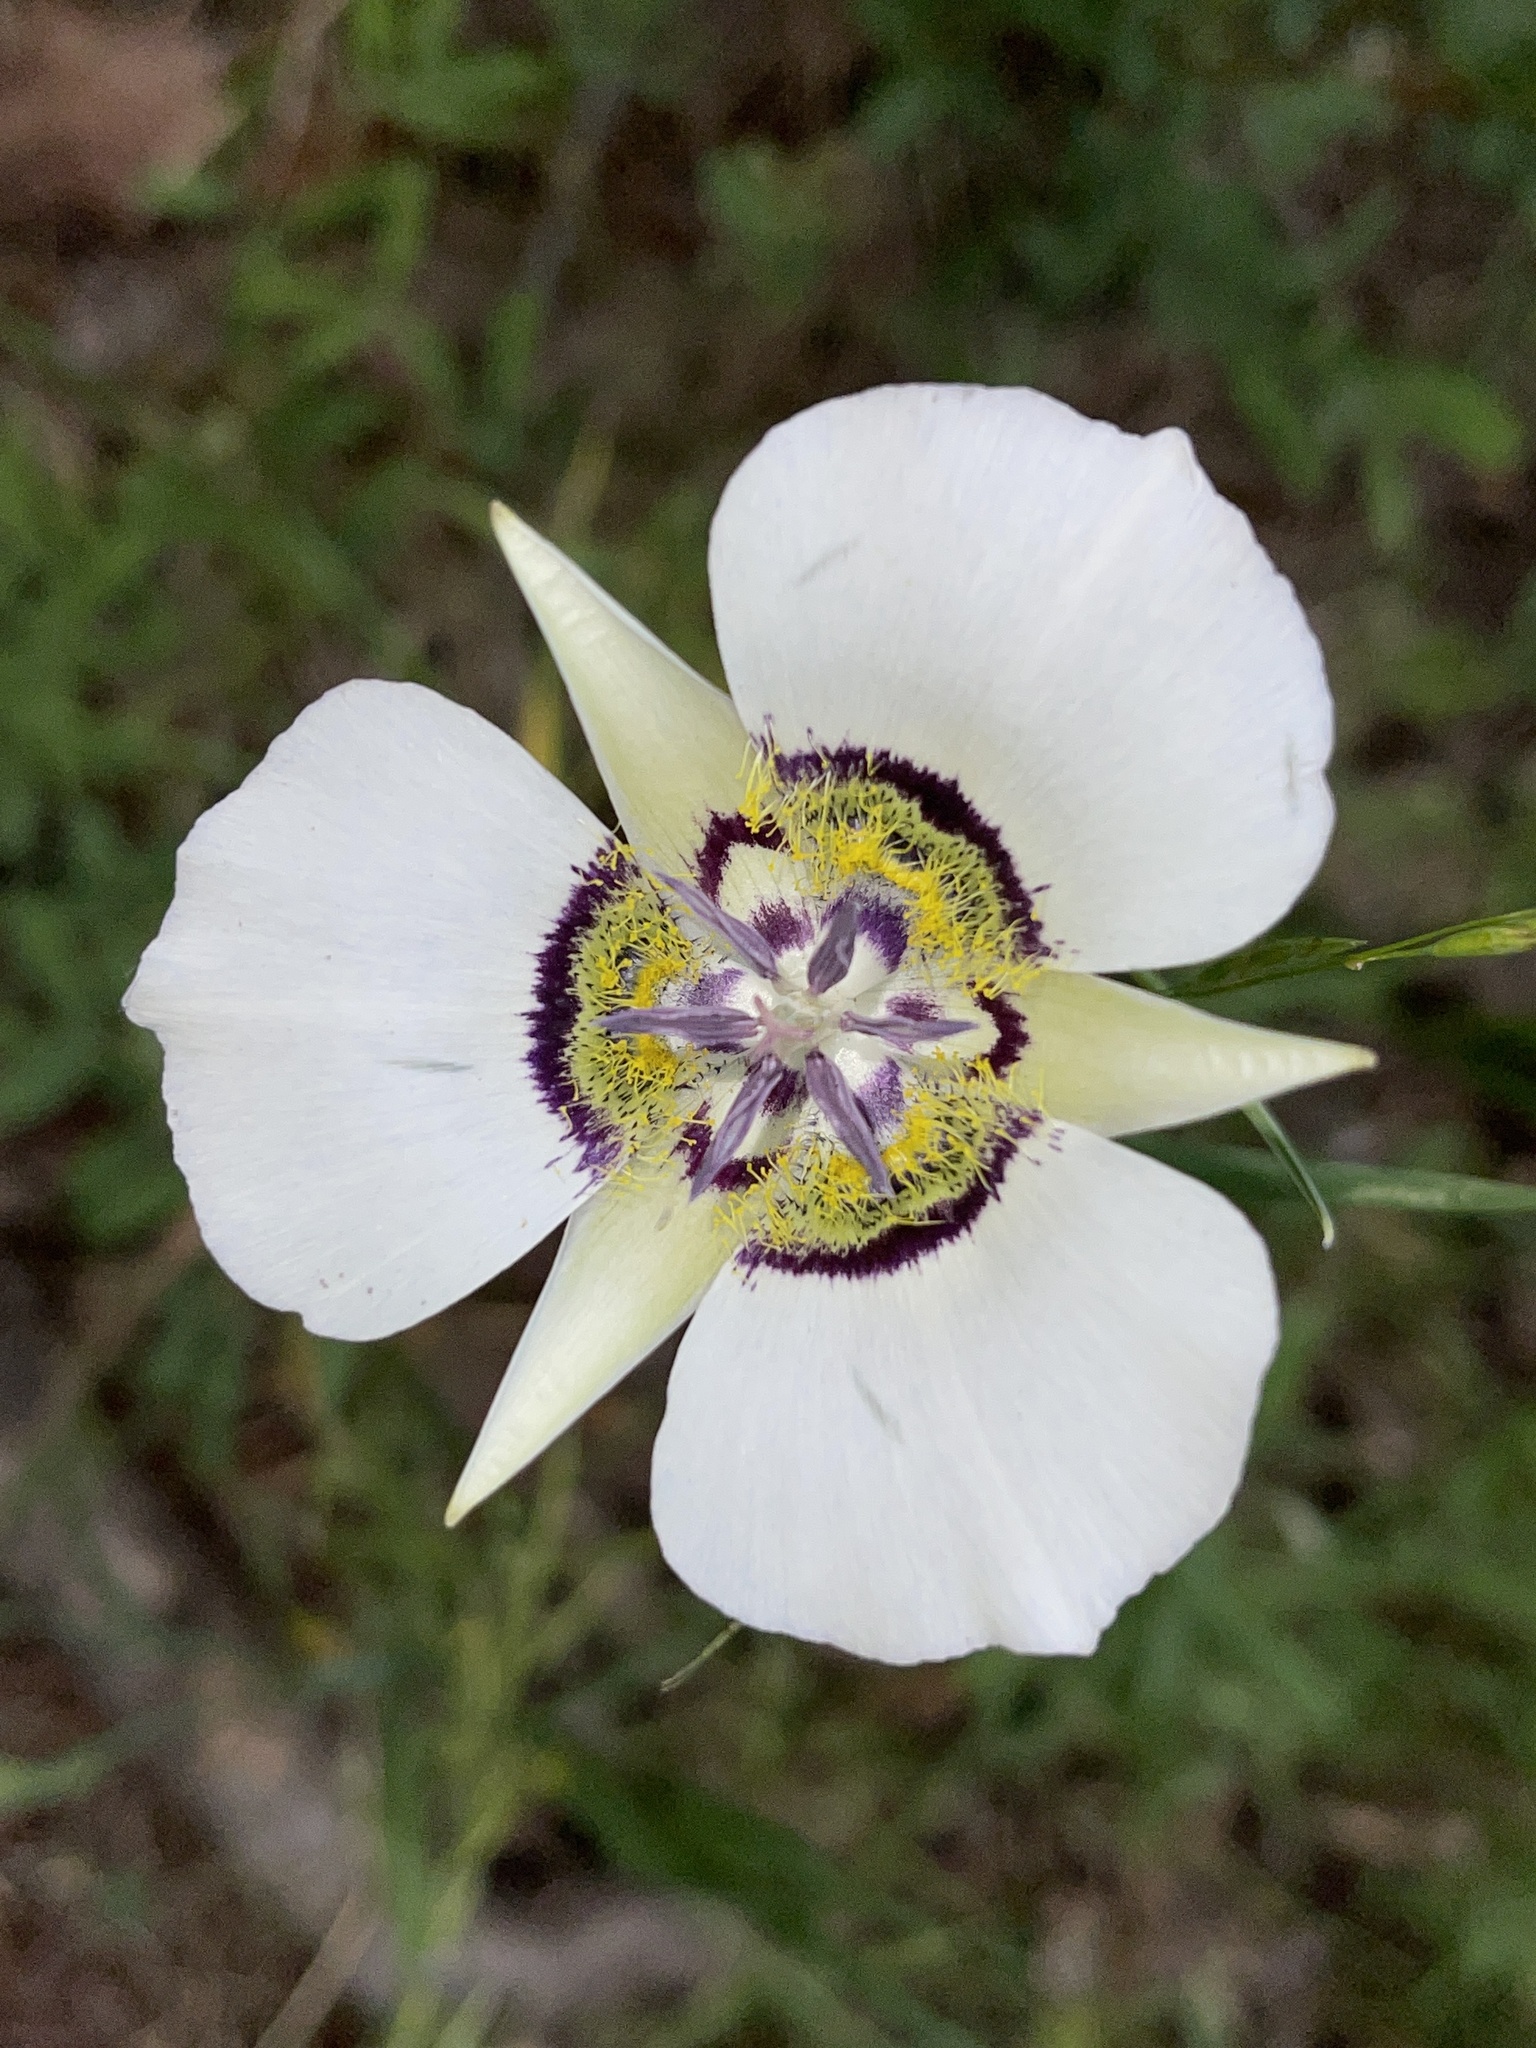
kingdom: Plantae
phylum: Tracheophyta
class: Liliopsida
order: Liliales
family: Liliaceae
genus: Calochortus
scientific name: Calochortus gunnisonii
